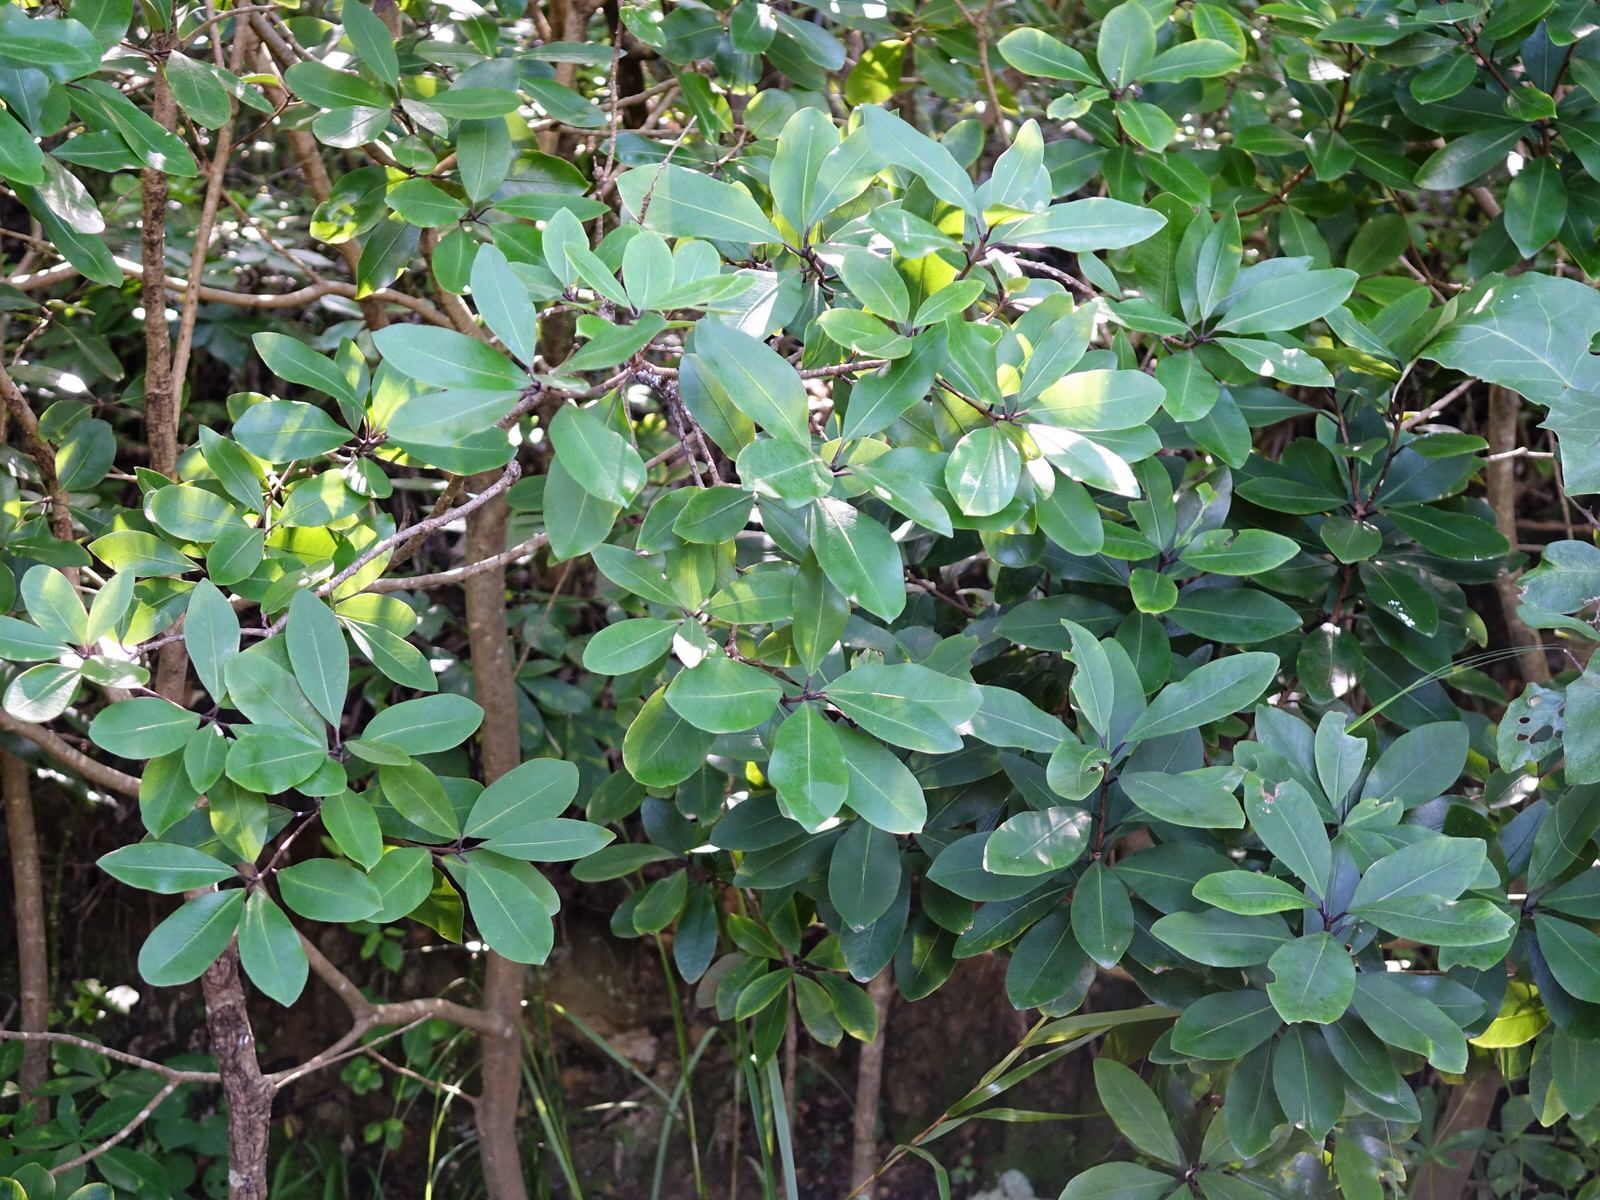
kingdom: Plantae
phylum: Tracheophyta
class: Magnoliopsida
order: Apiales
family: Pittosporaceae
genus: Pittosporum
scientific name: Pittosporum umbellatum
